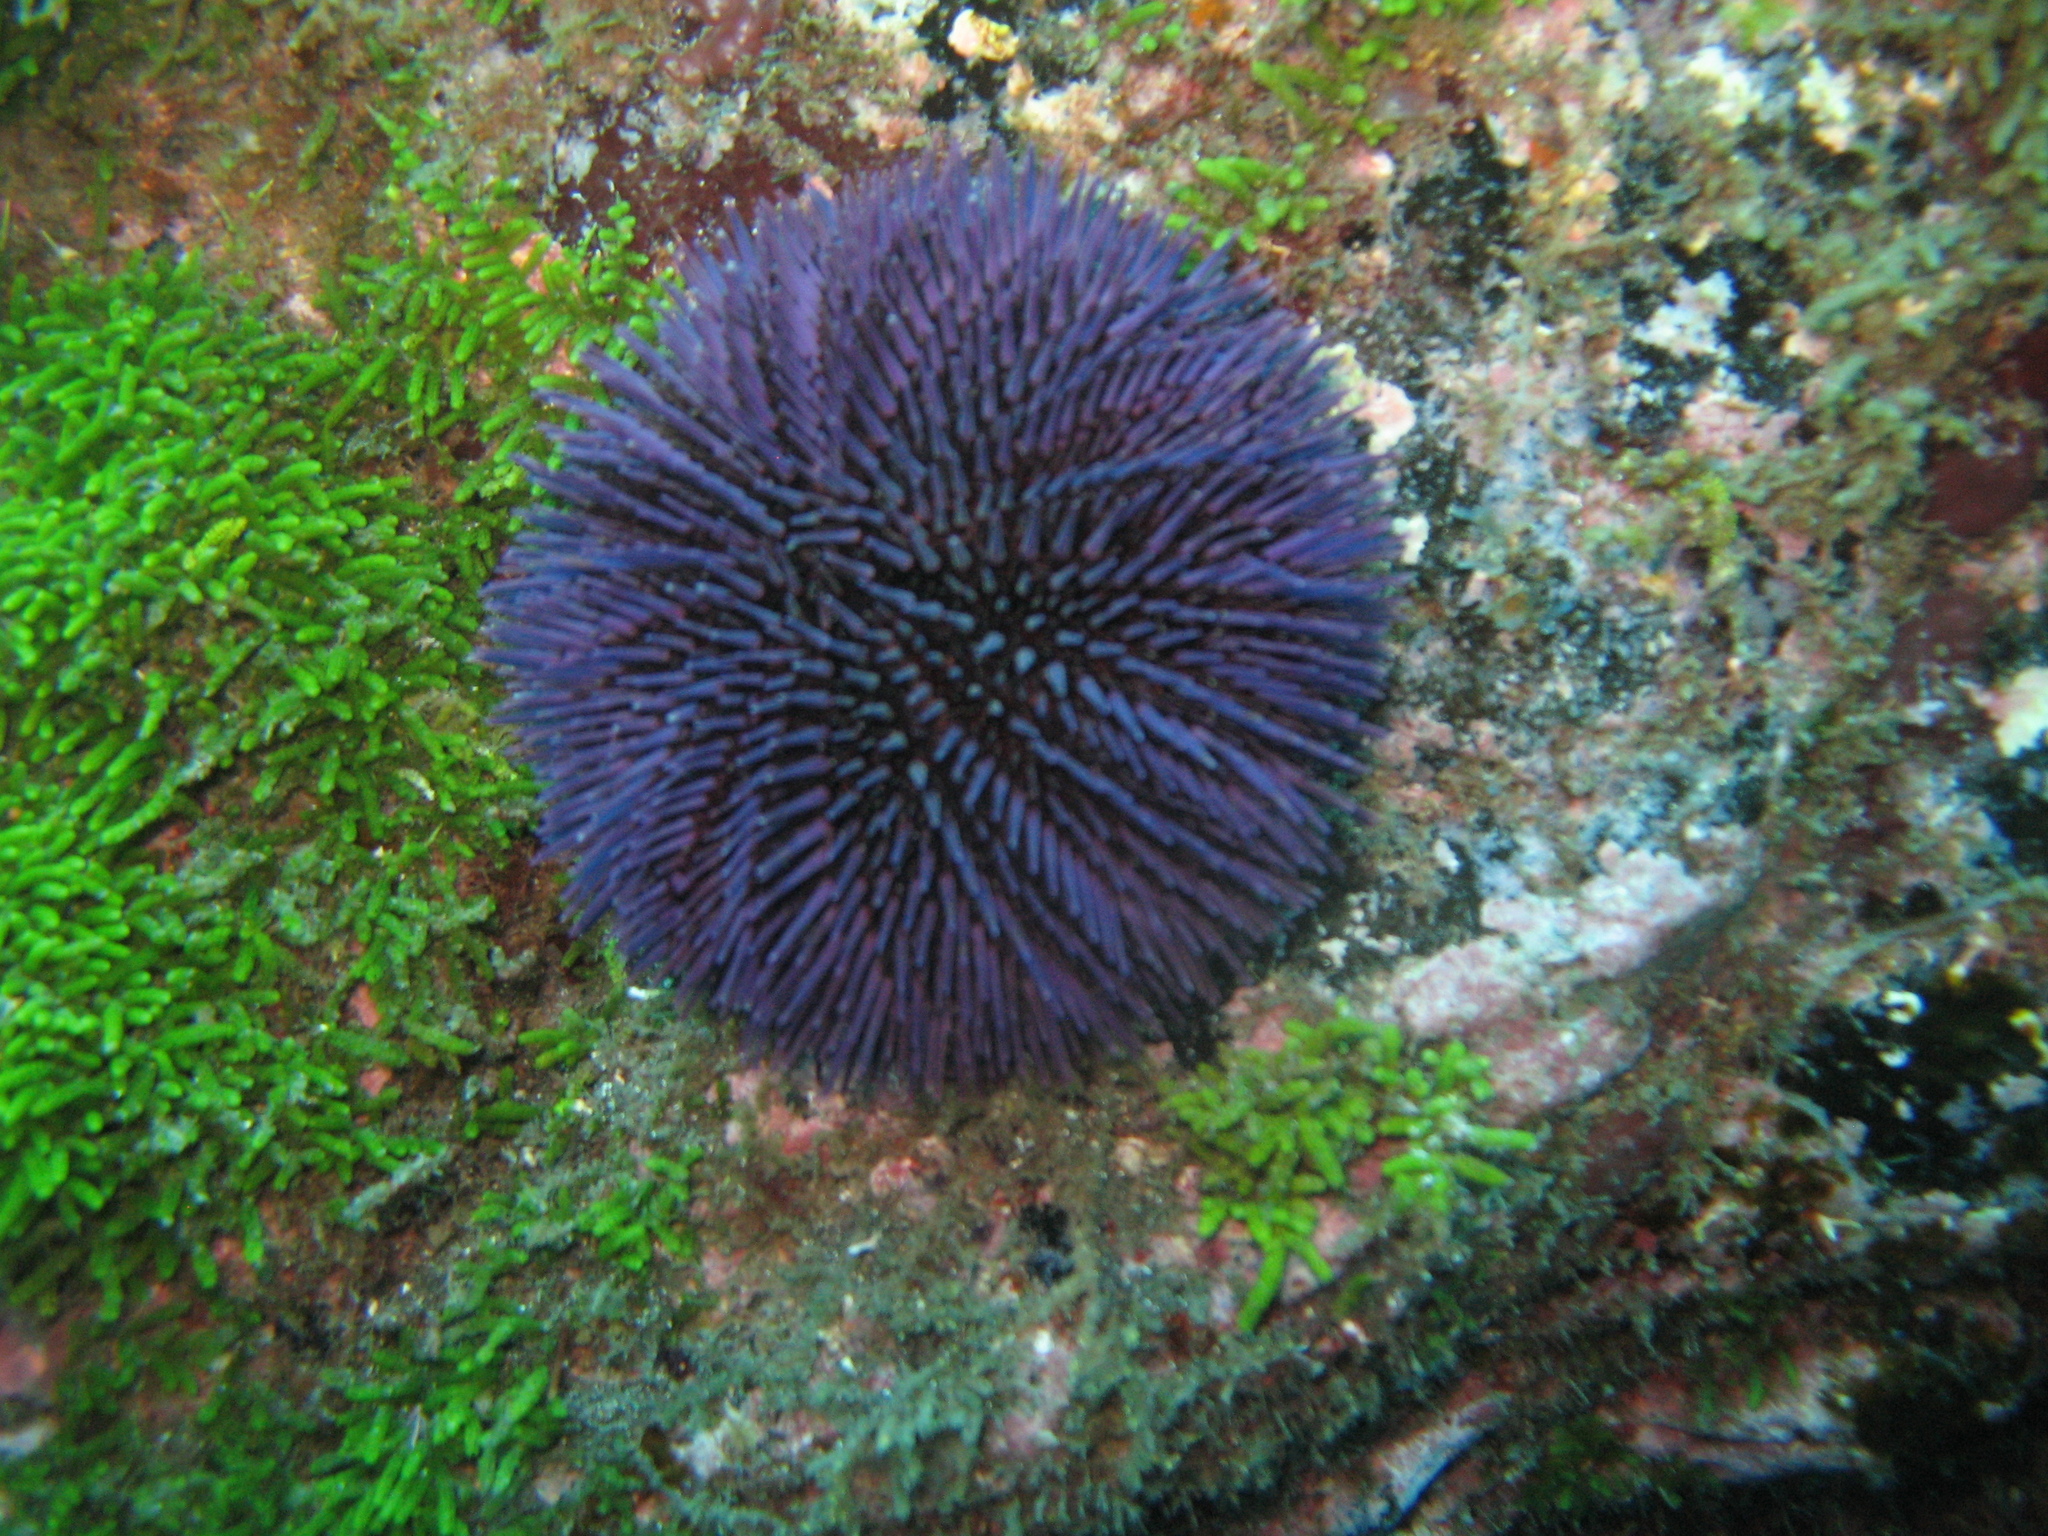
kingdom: Animalia
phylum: Echinodermata
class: Echinoidea
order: Camarodonta
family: Toxopneustidae
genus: Sphaerechinus
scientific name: Sphaerechinus granularis
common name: Violet sea urchin
